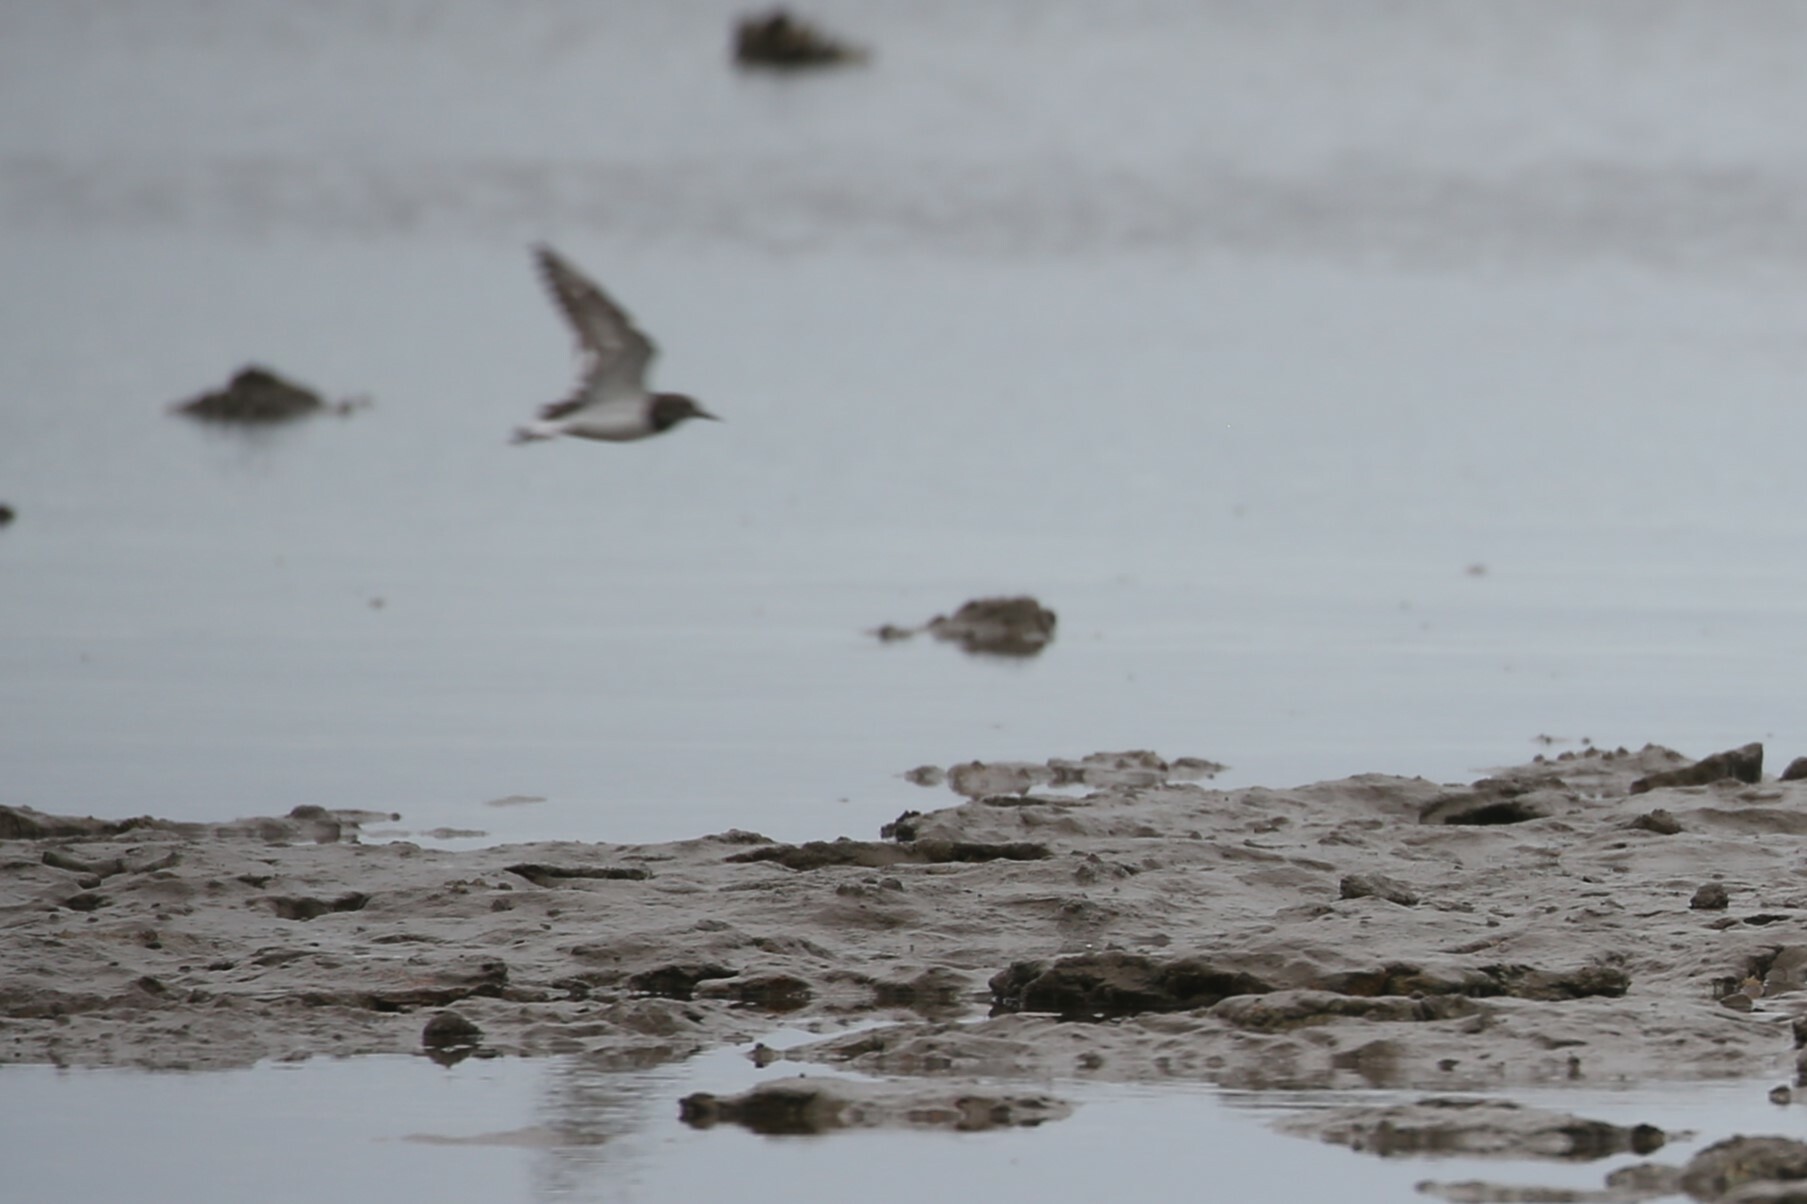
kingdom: Animalia
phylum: Chordata
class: Aves
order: Charadriiformes
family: Scolopacidae
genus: Arenaria
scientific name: Arenaria interpres
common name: Ruddy turnstone
